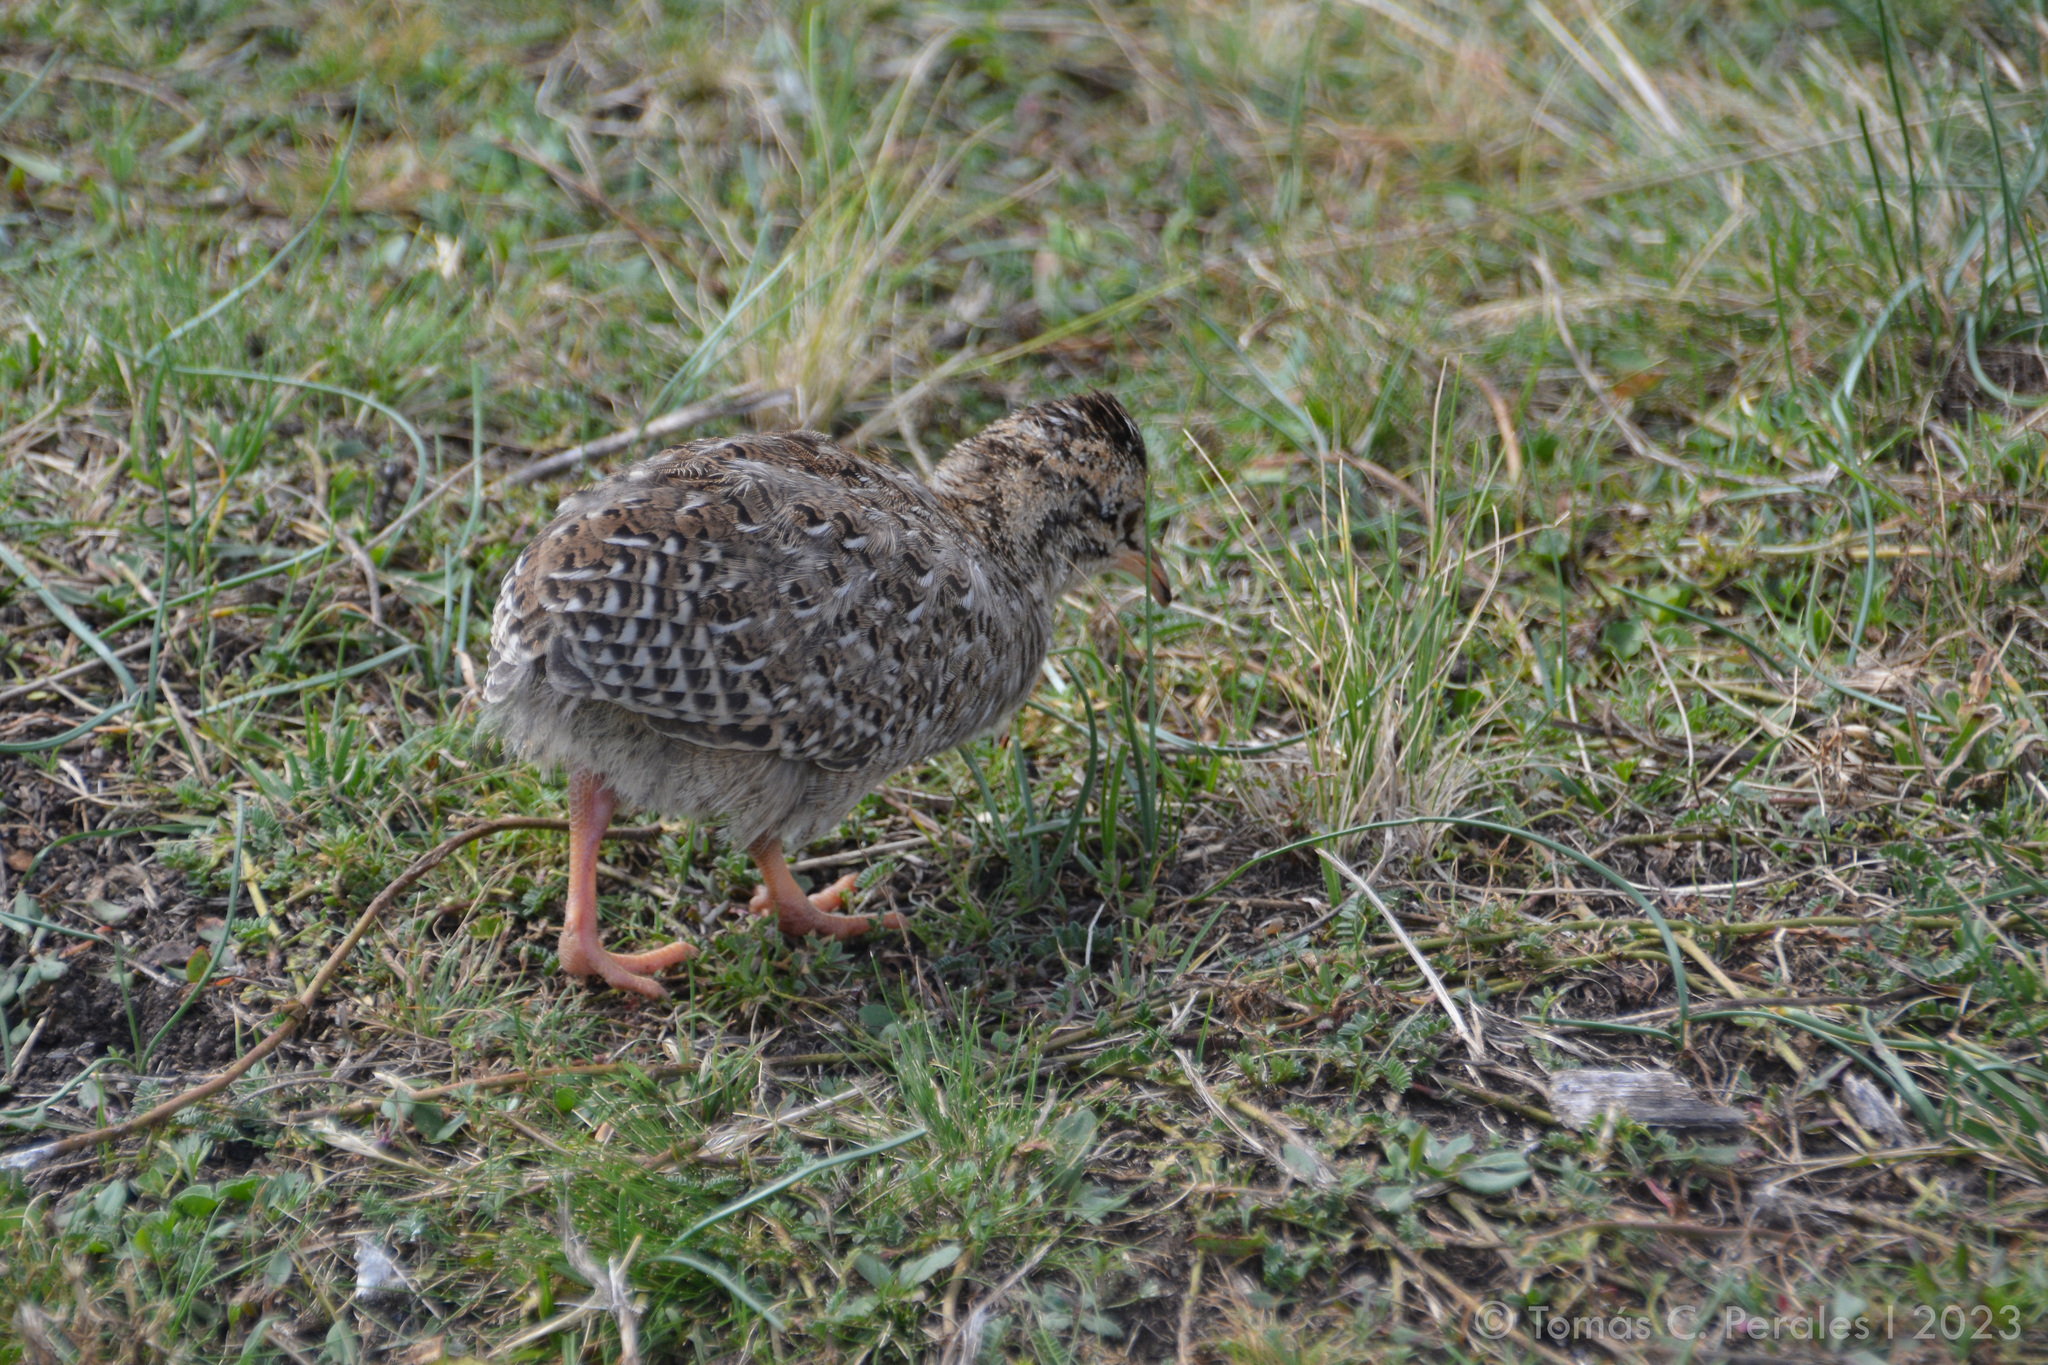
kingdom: Animalia
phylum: Chordata
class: Aves
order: Tinamiformes
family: Tinamidae
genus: Nothoprocta
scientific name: Nothoprocta pentlandii
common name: Andean tinamou
